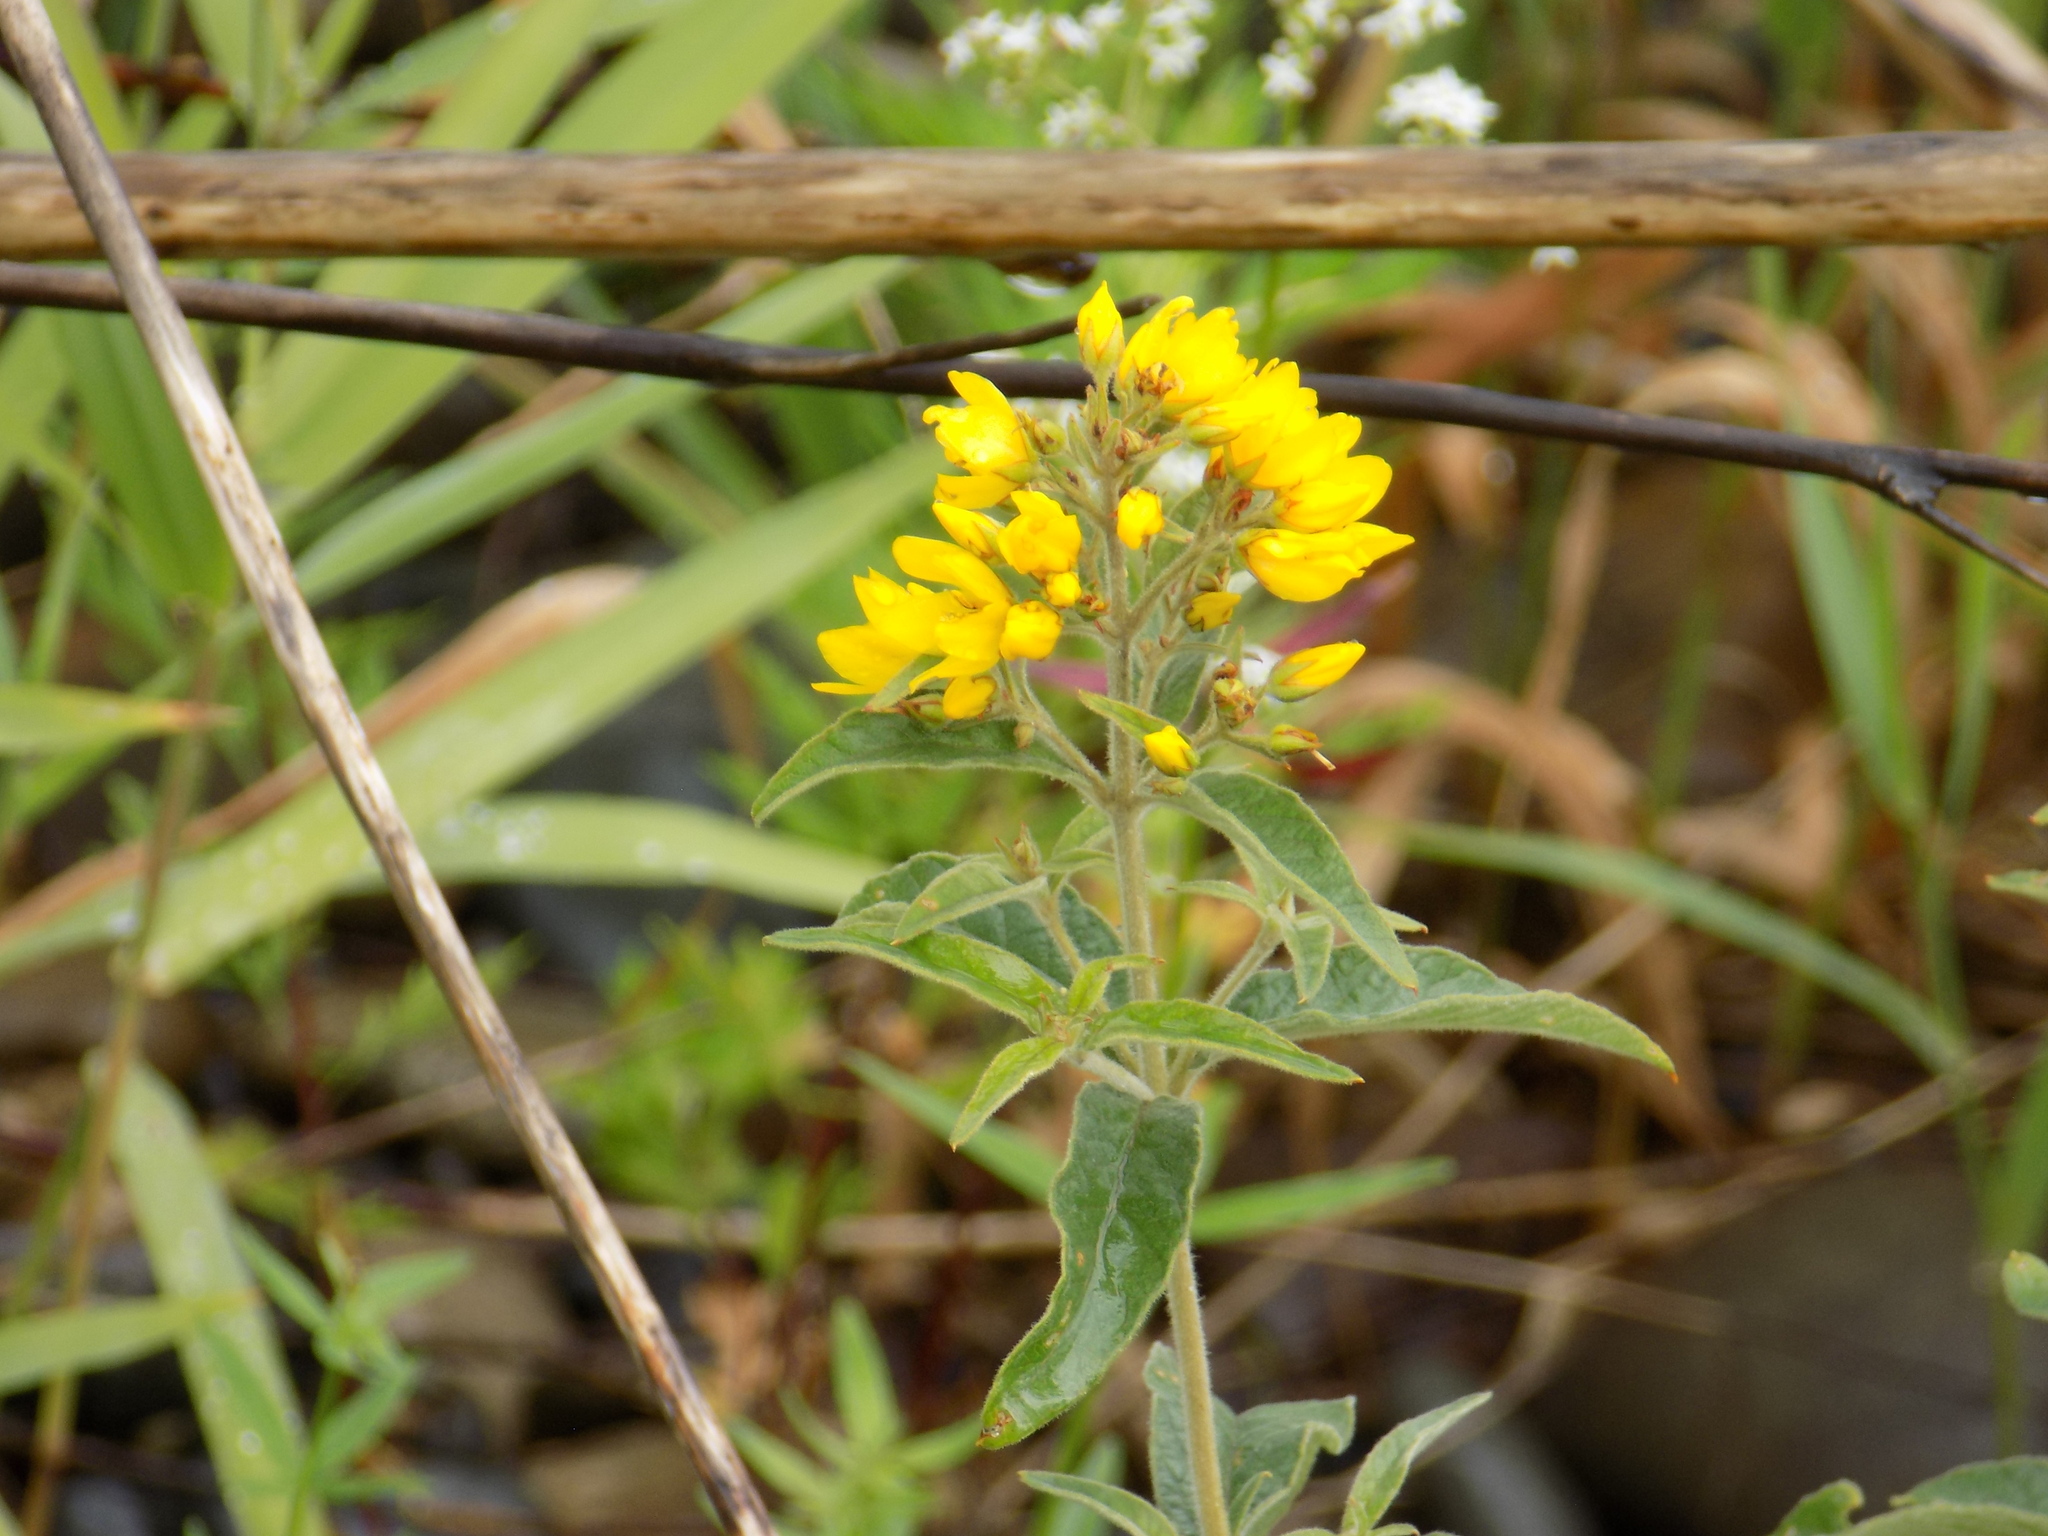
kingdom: Plantae
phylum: Tracheophyta
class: Magnoliopsida
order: Ericales
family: Primulaceae
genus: Lysimachia
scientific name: Lysimachia vulgaris
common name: Yellow loosestrife
